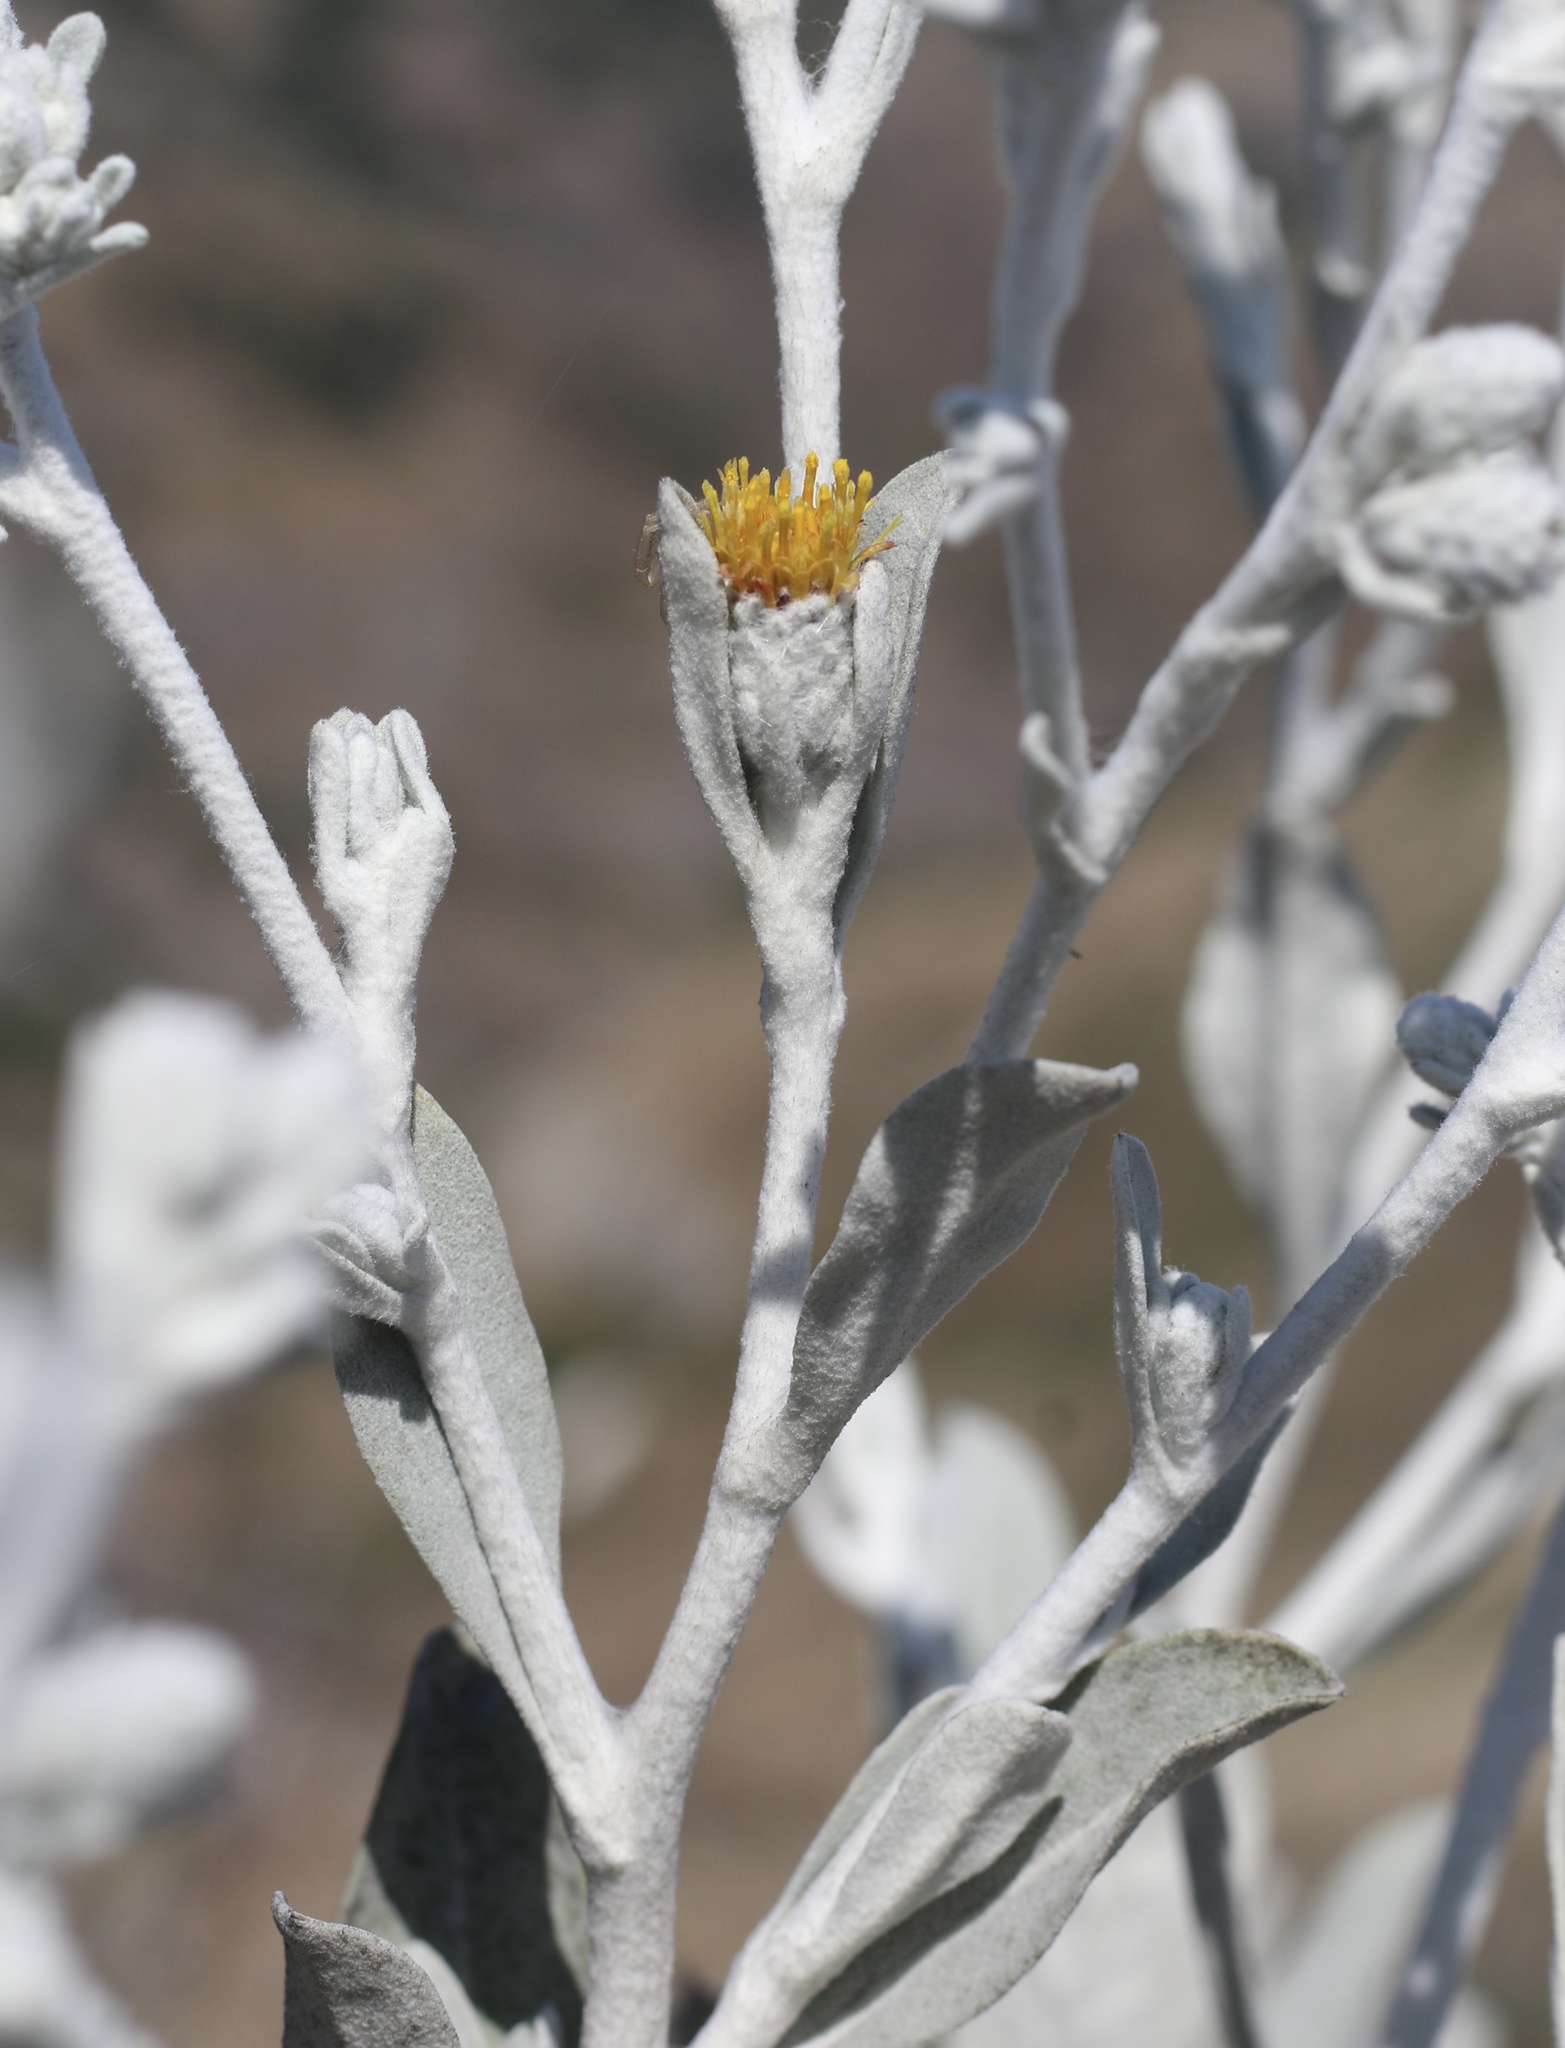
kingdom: Plantae
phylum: Tracheophyta
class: Magnoliopsida
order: Asterales
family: Asteraceae
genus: Hazardia
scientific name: Hazardia detonsa
